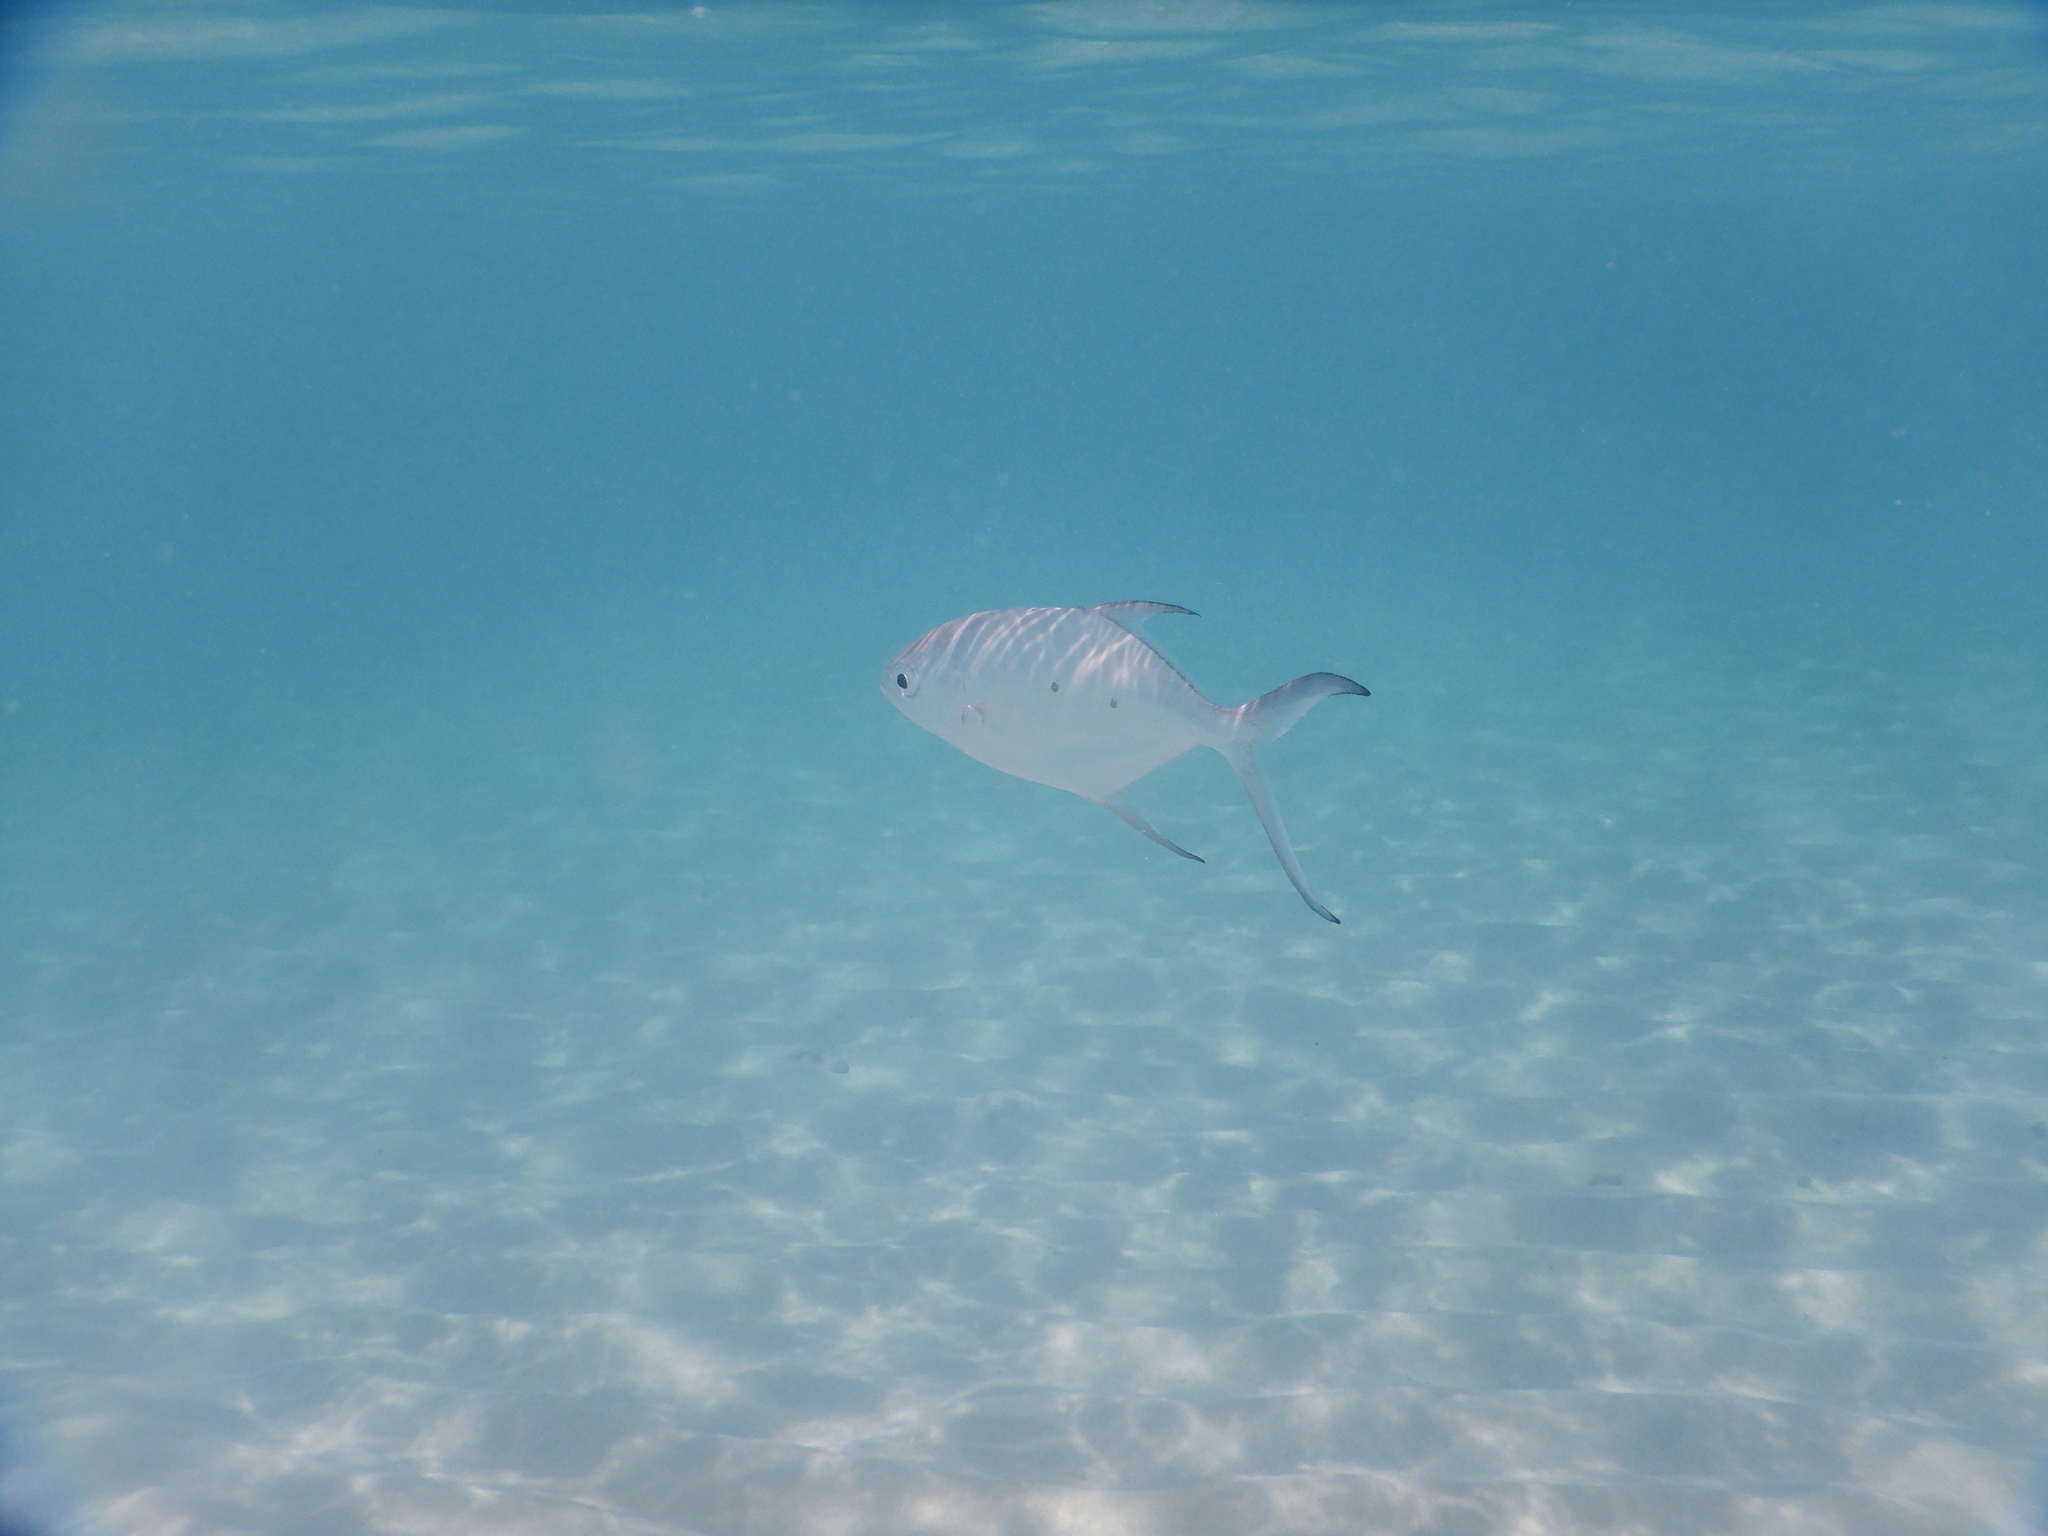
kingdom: Animalia
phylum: Chordata
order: Perciformes
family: Carangidae
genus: Trachinotus
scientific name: Trachinotus baillonii
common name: Smallspotted dart
